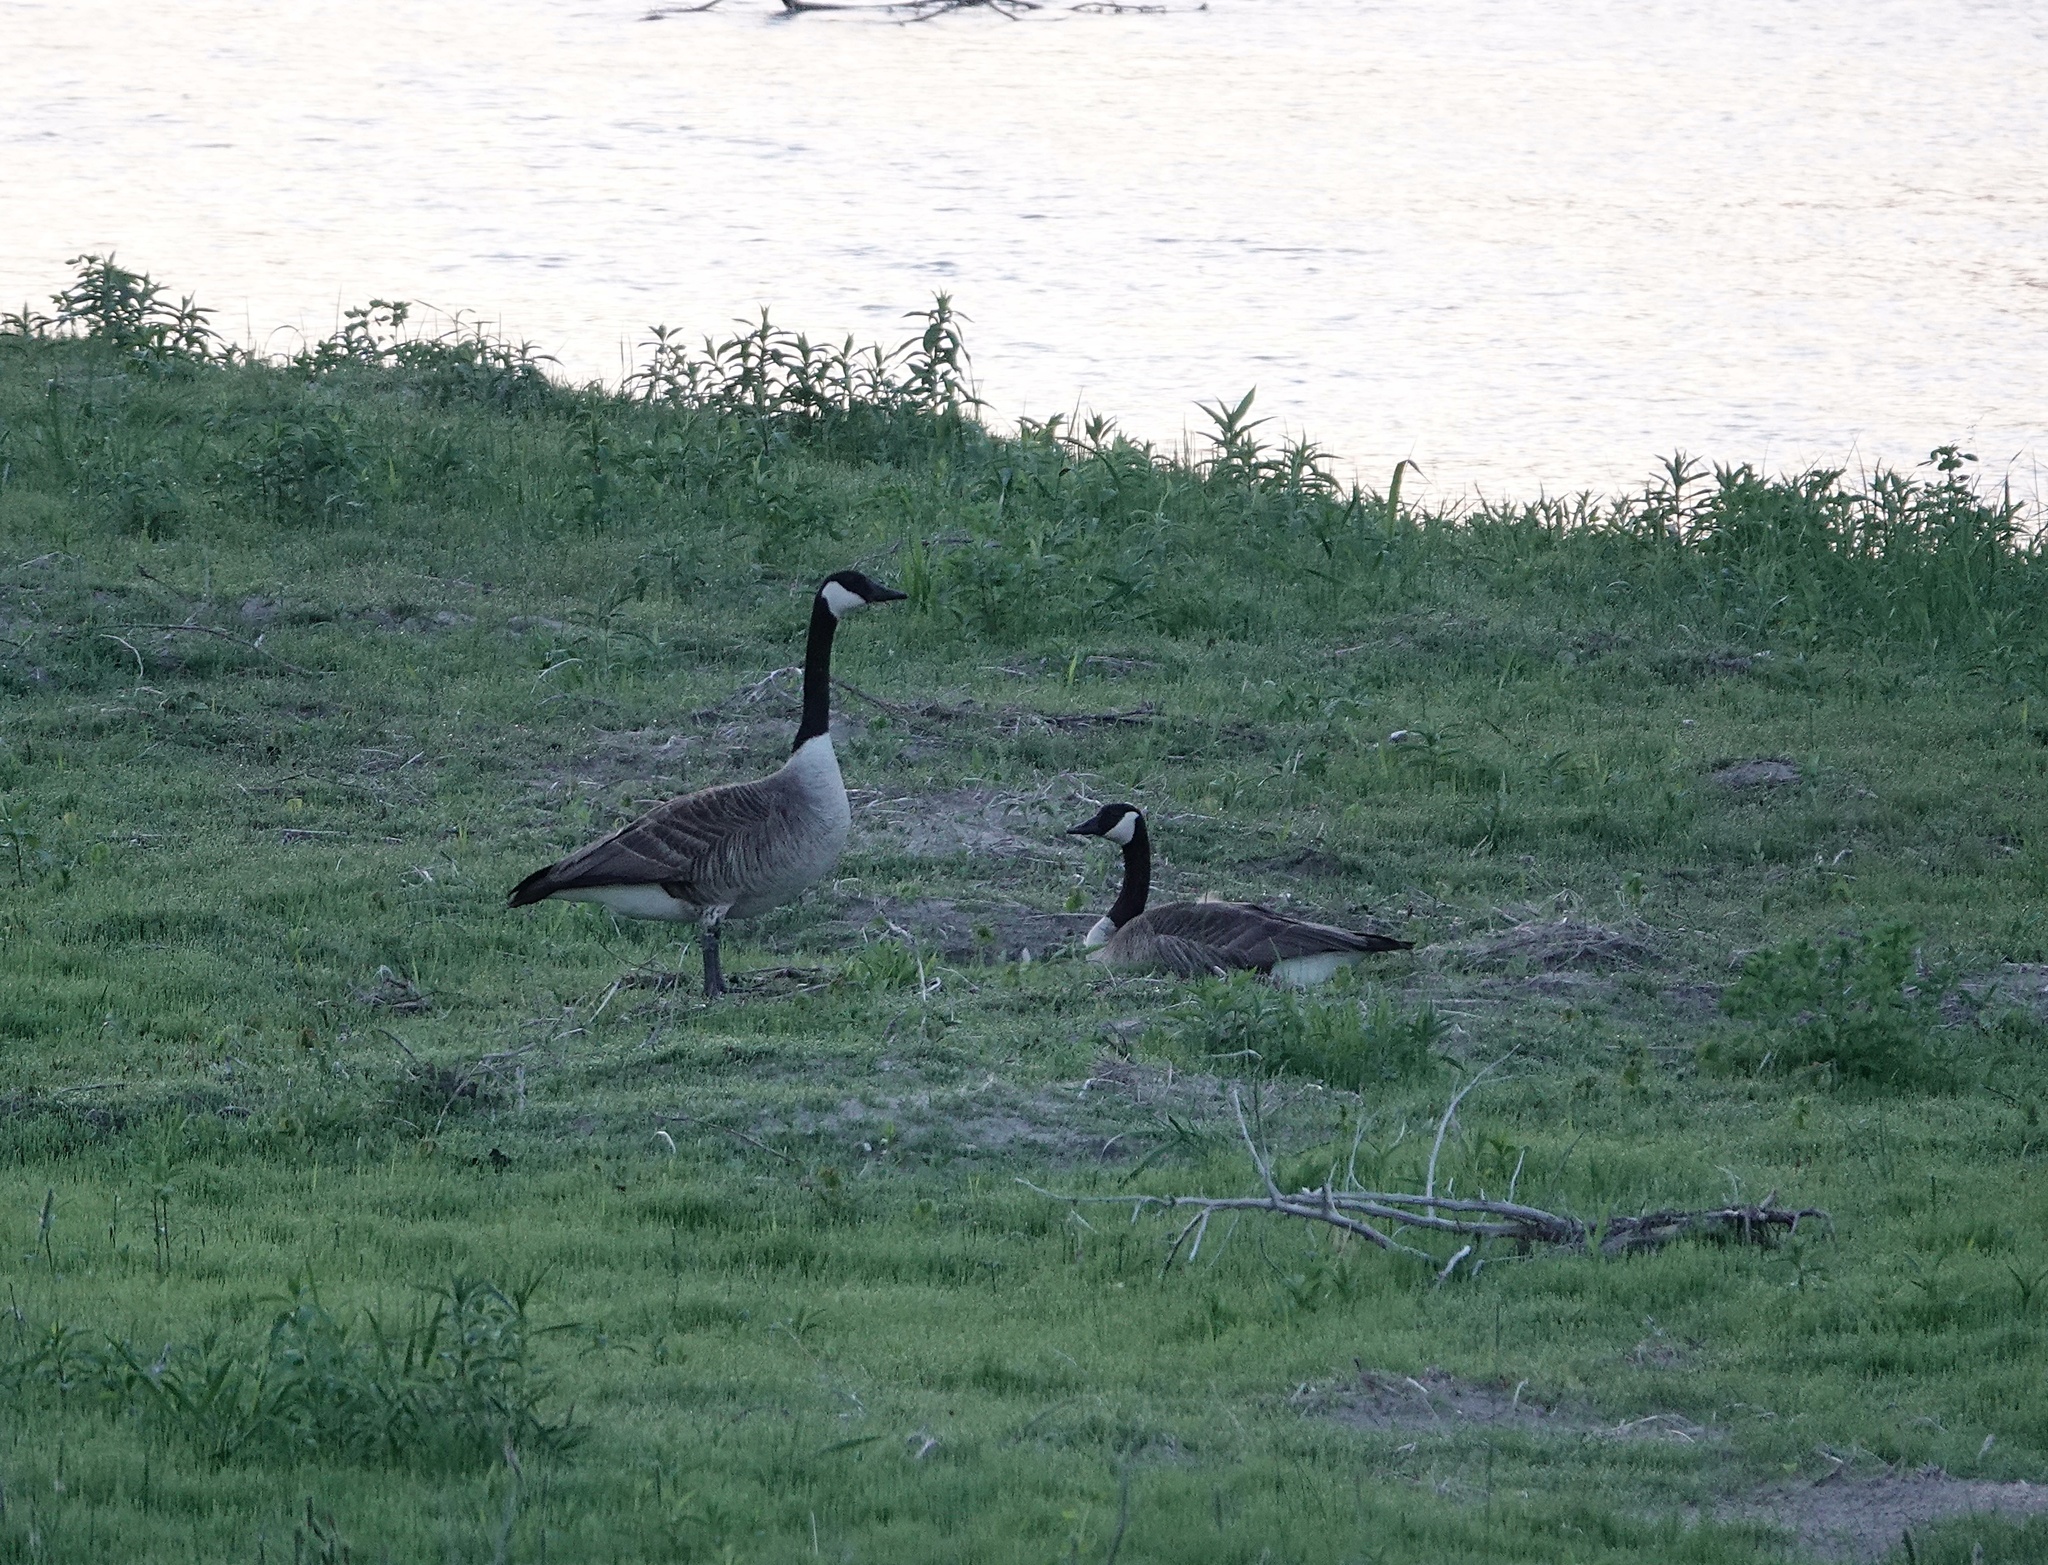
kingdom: Animalia
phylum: Chordata
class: Aves
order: Anseriformes
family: Anatidae
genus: Branta
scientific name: Branta canadensis
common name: Canada goose
